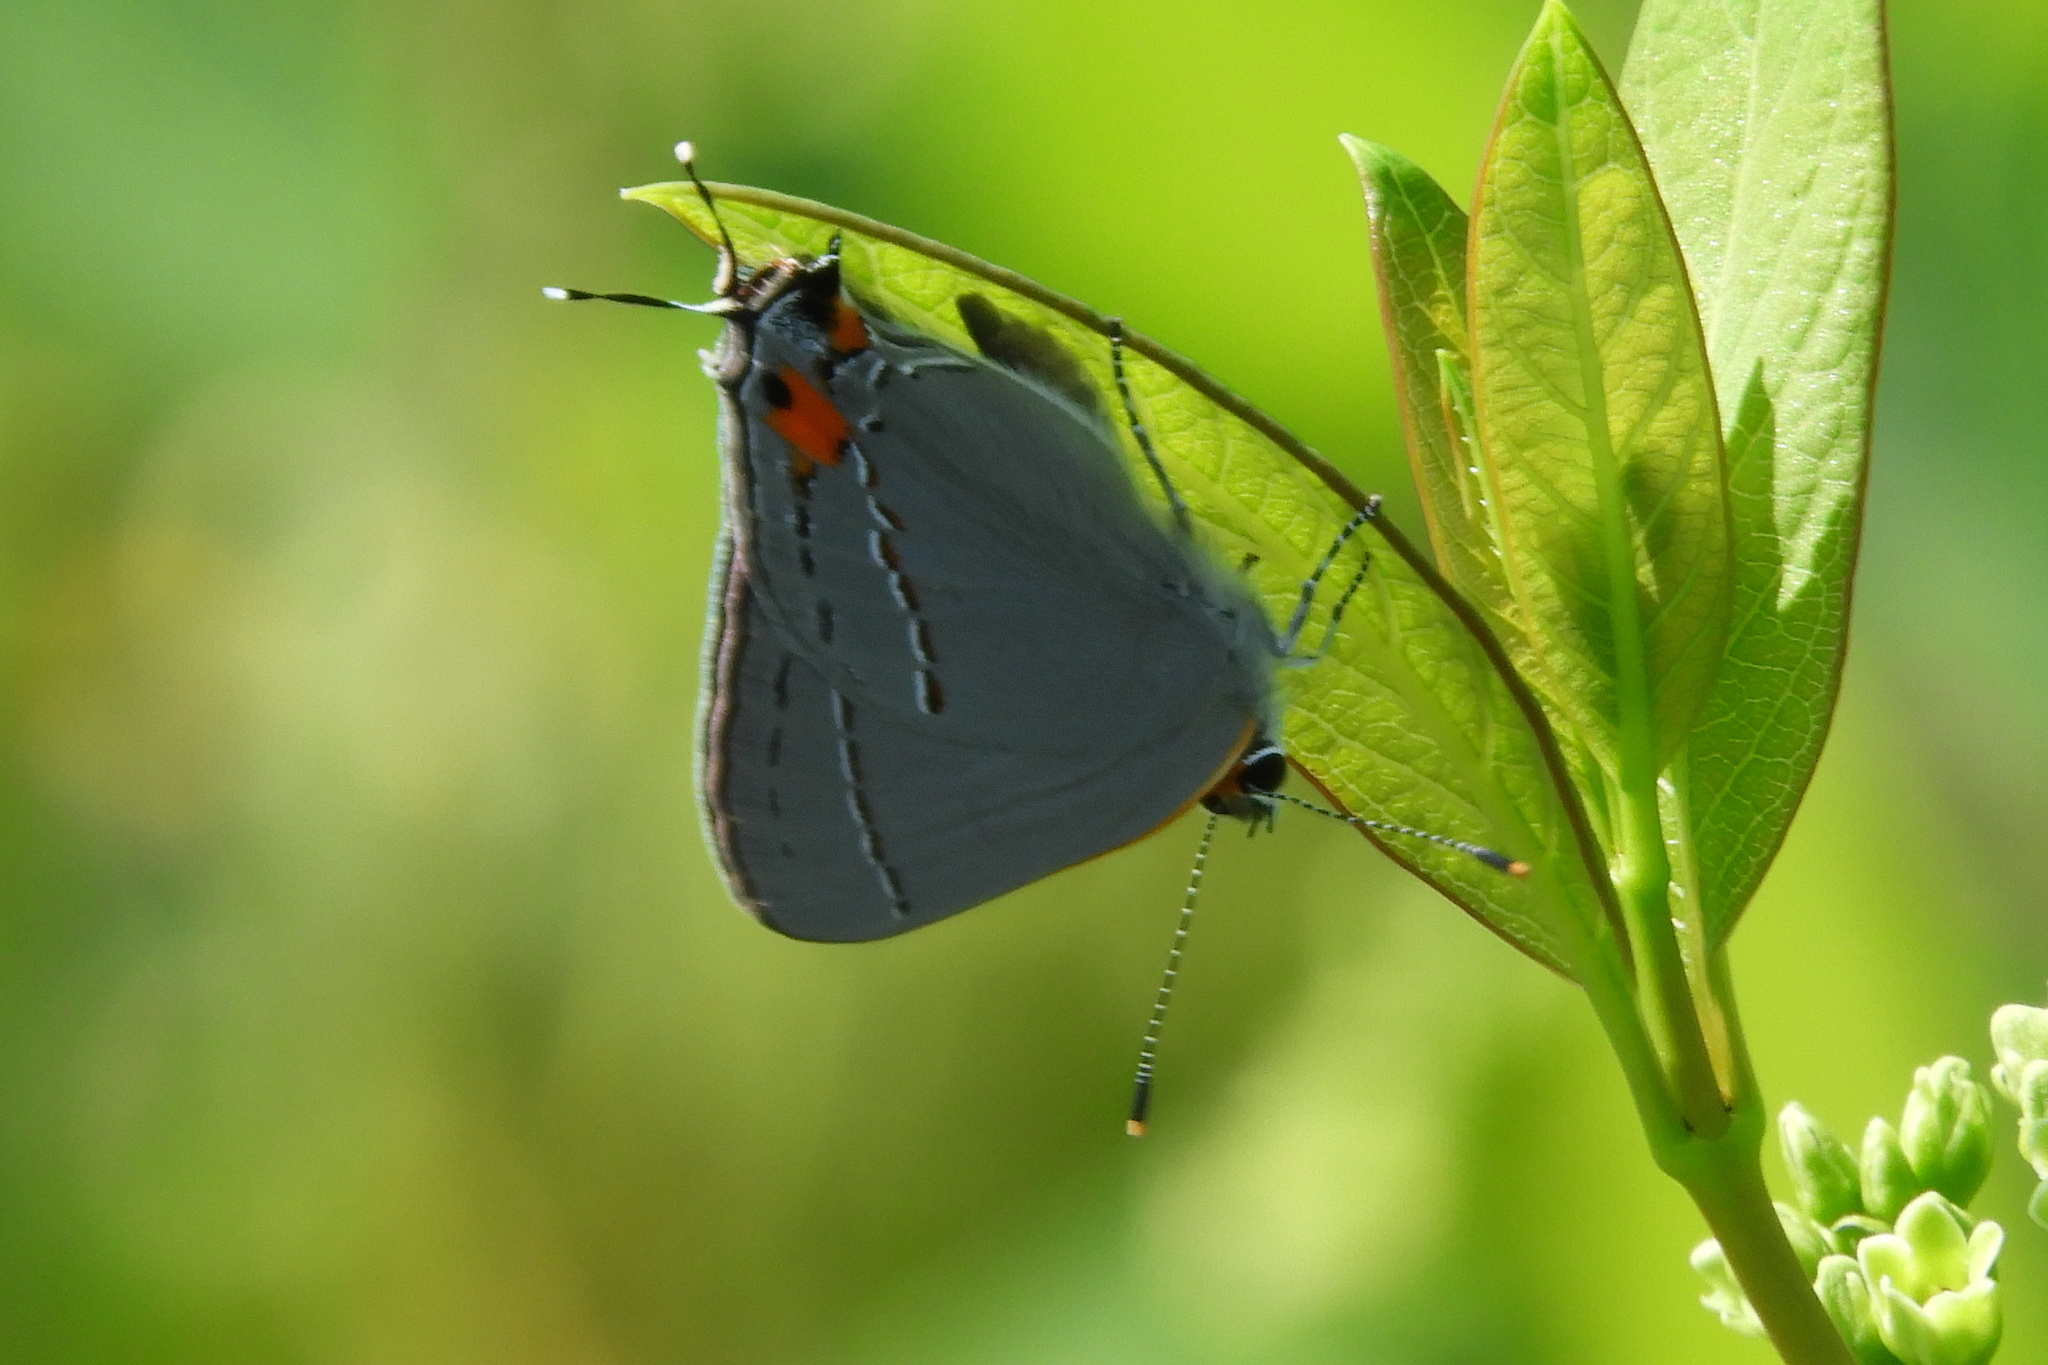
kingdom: Animalia
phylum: Arthropoda
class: Insecta
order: Lepidoptera
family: Lycaenidae
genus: Strymon
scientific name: Strymon melinus
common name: Gray hairstreak
